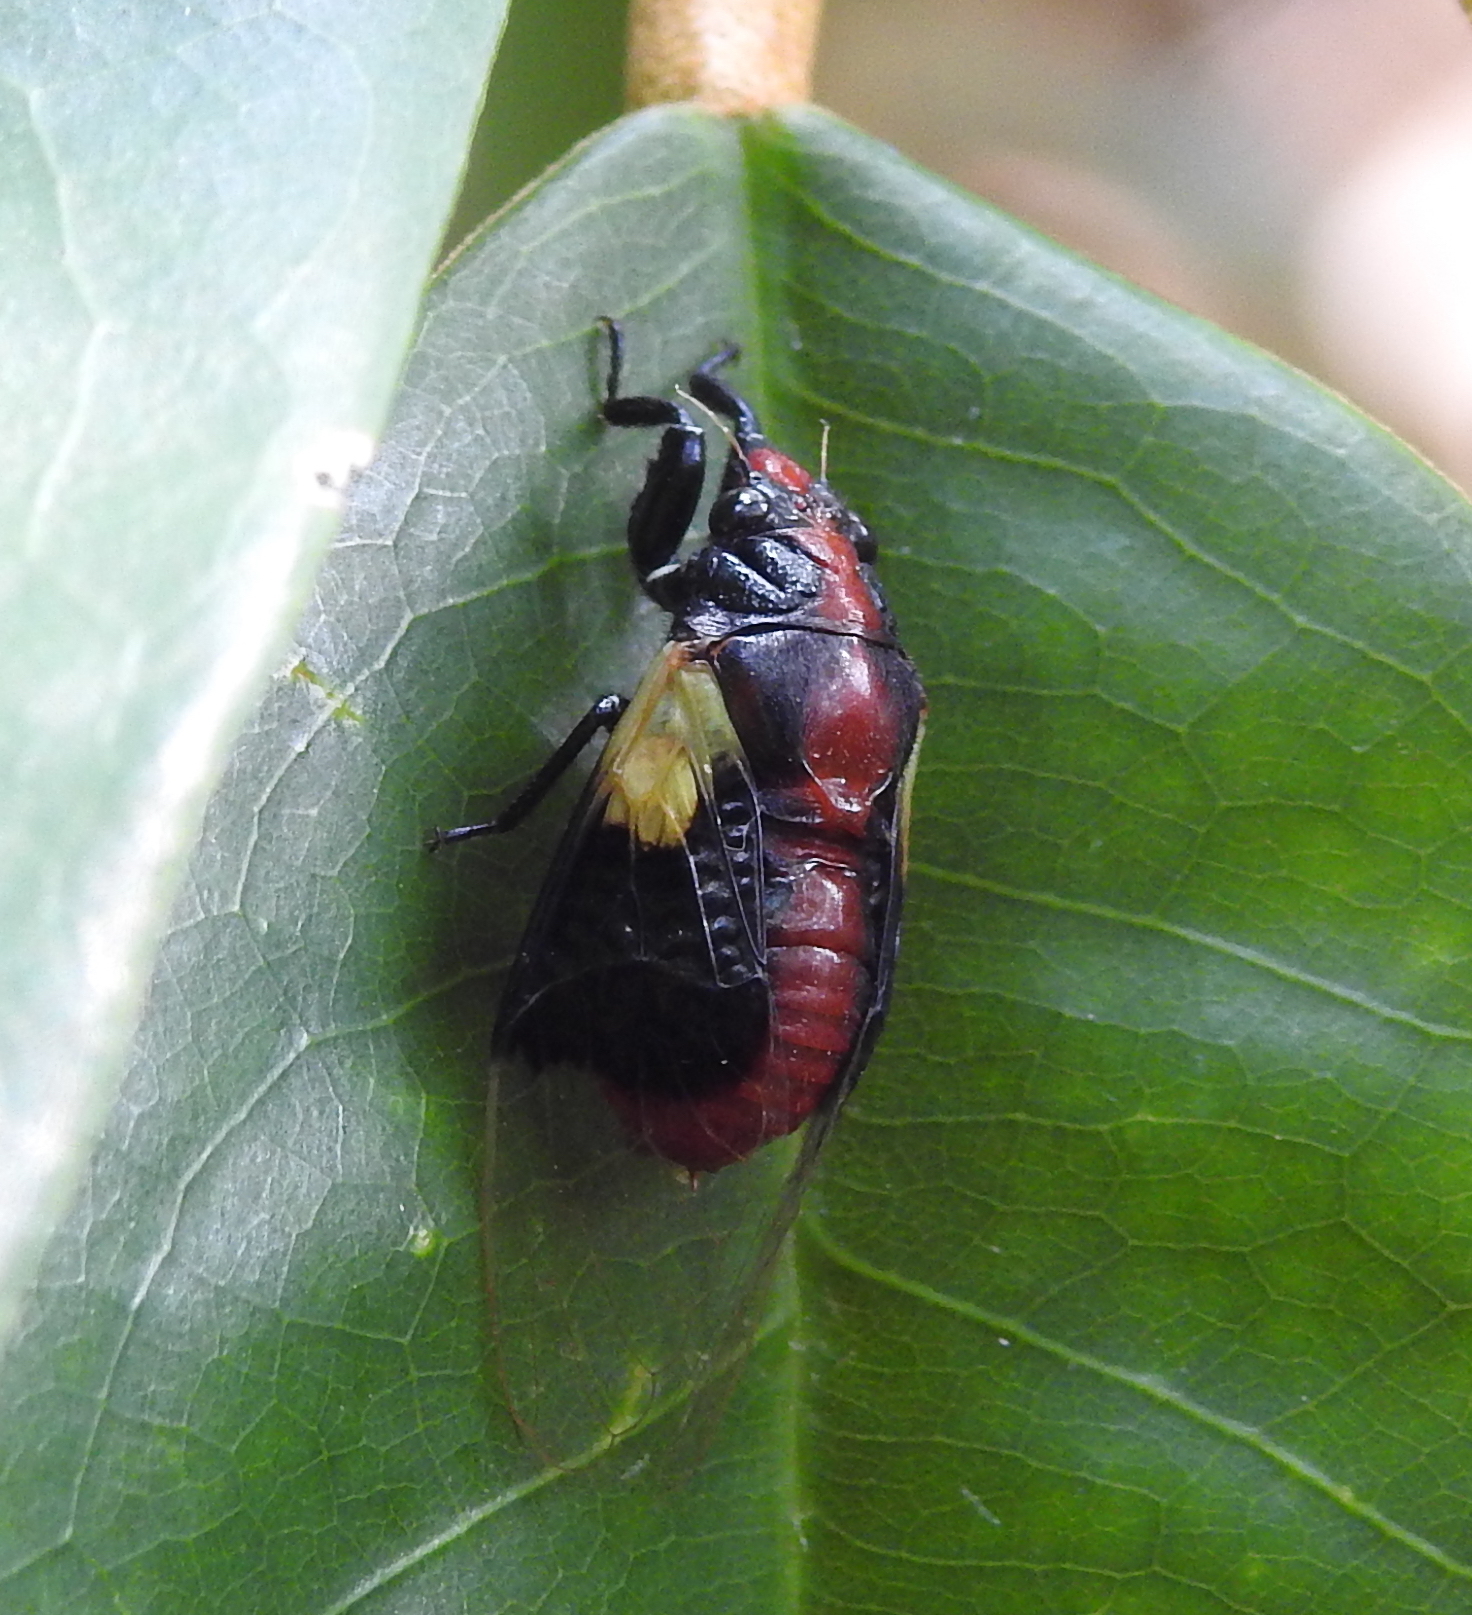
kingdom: Animalia
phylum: Arthropoda
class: Insecta
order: Hemiptera
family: Cicadidae
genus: Mogannia
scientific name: Mogannia conica
